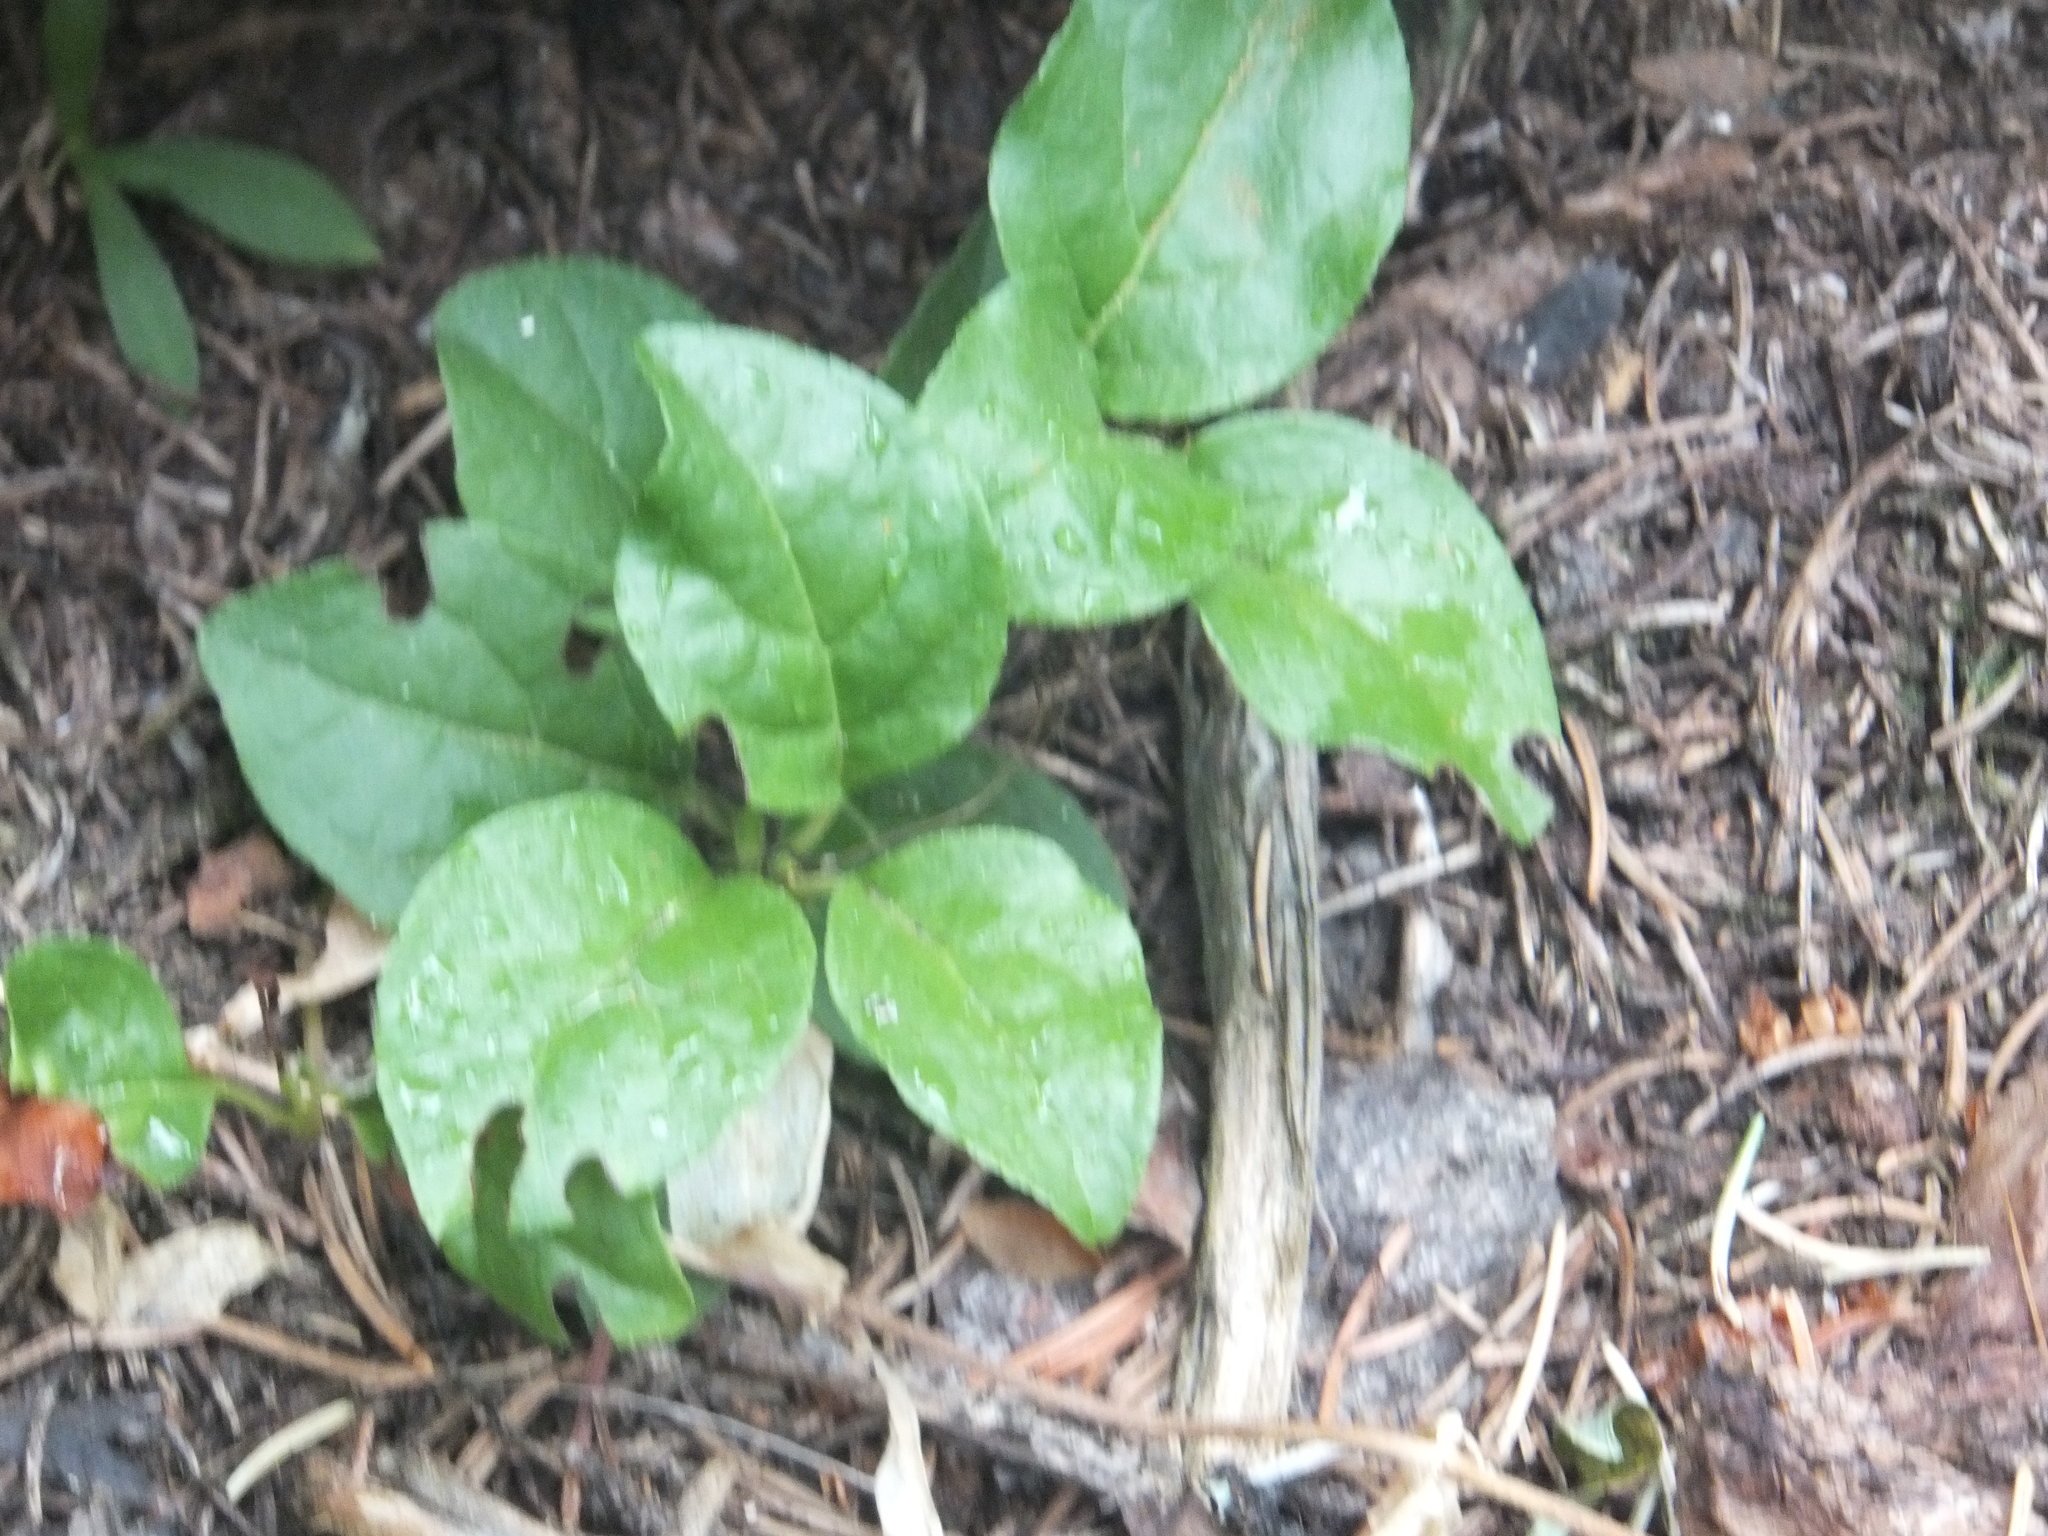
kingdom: Plantae
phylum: Tracheophyta
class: Magnoliopsida
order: Ericales
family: Ericaceae
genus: Orthilia
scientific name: Orthilia secunda
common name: One-sided orthilia
